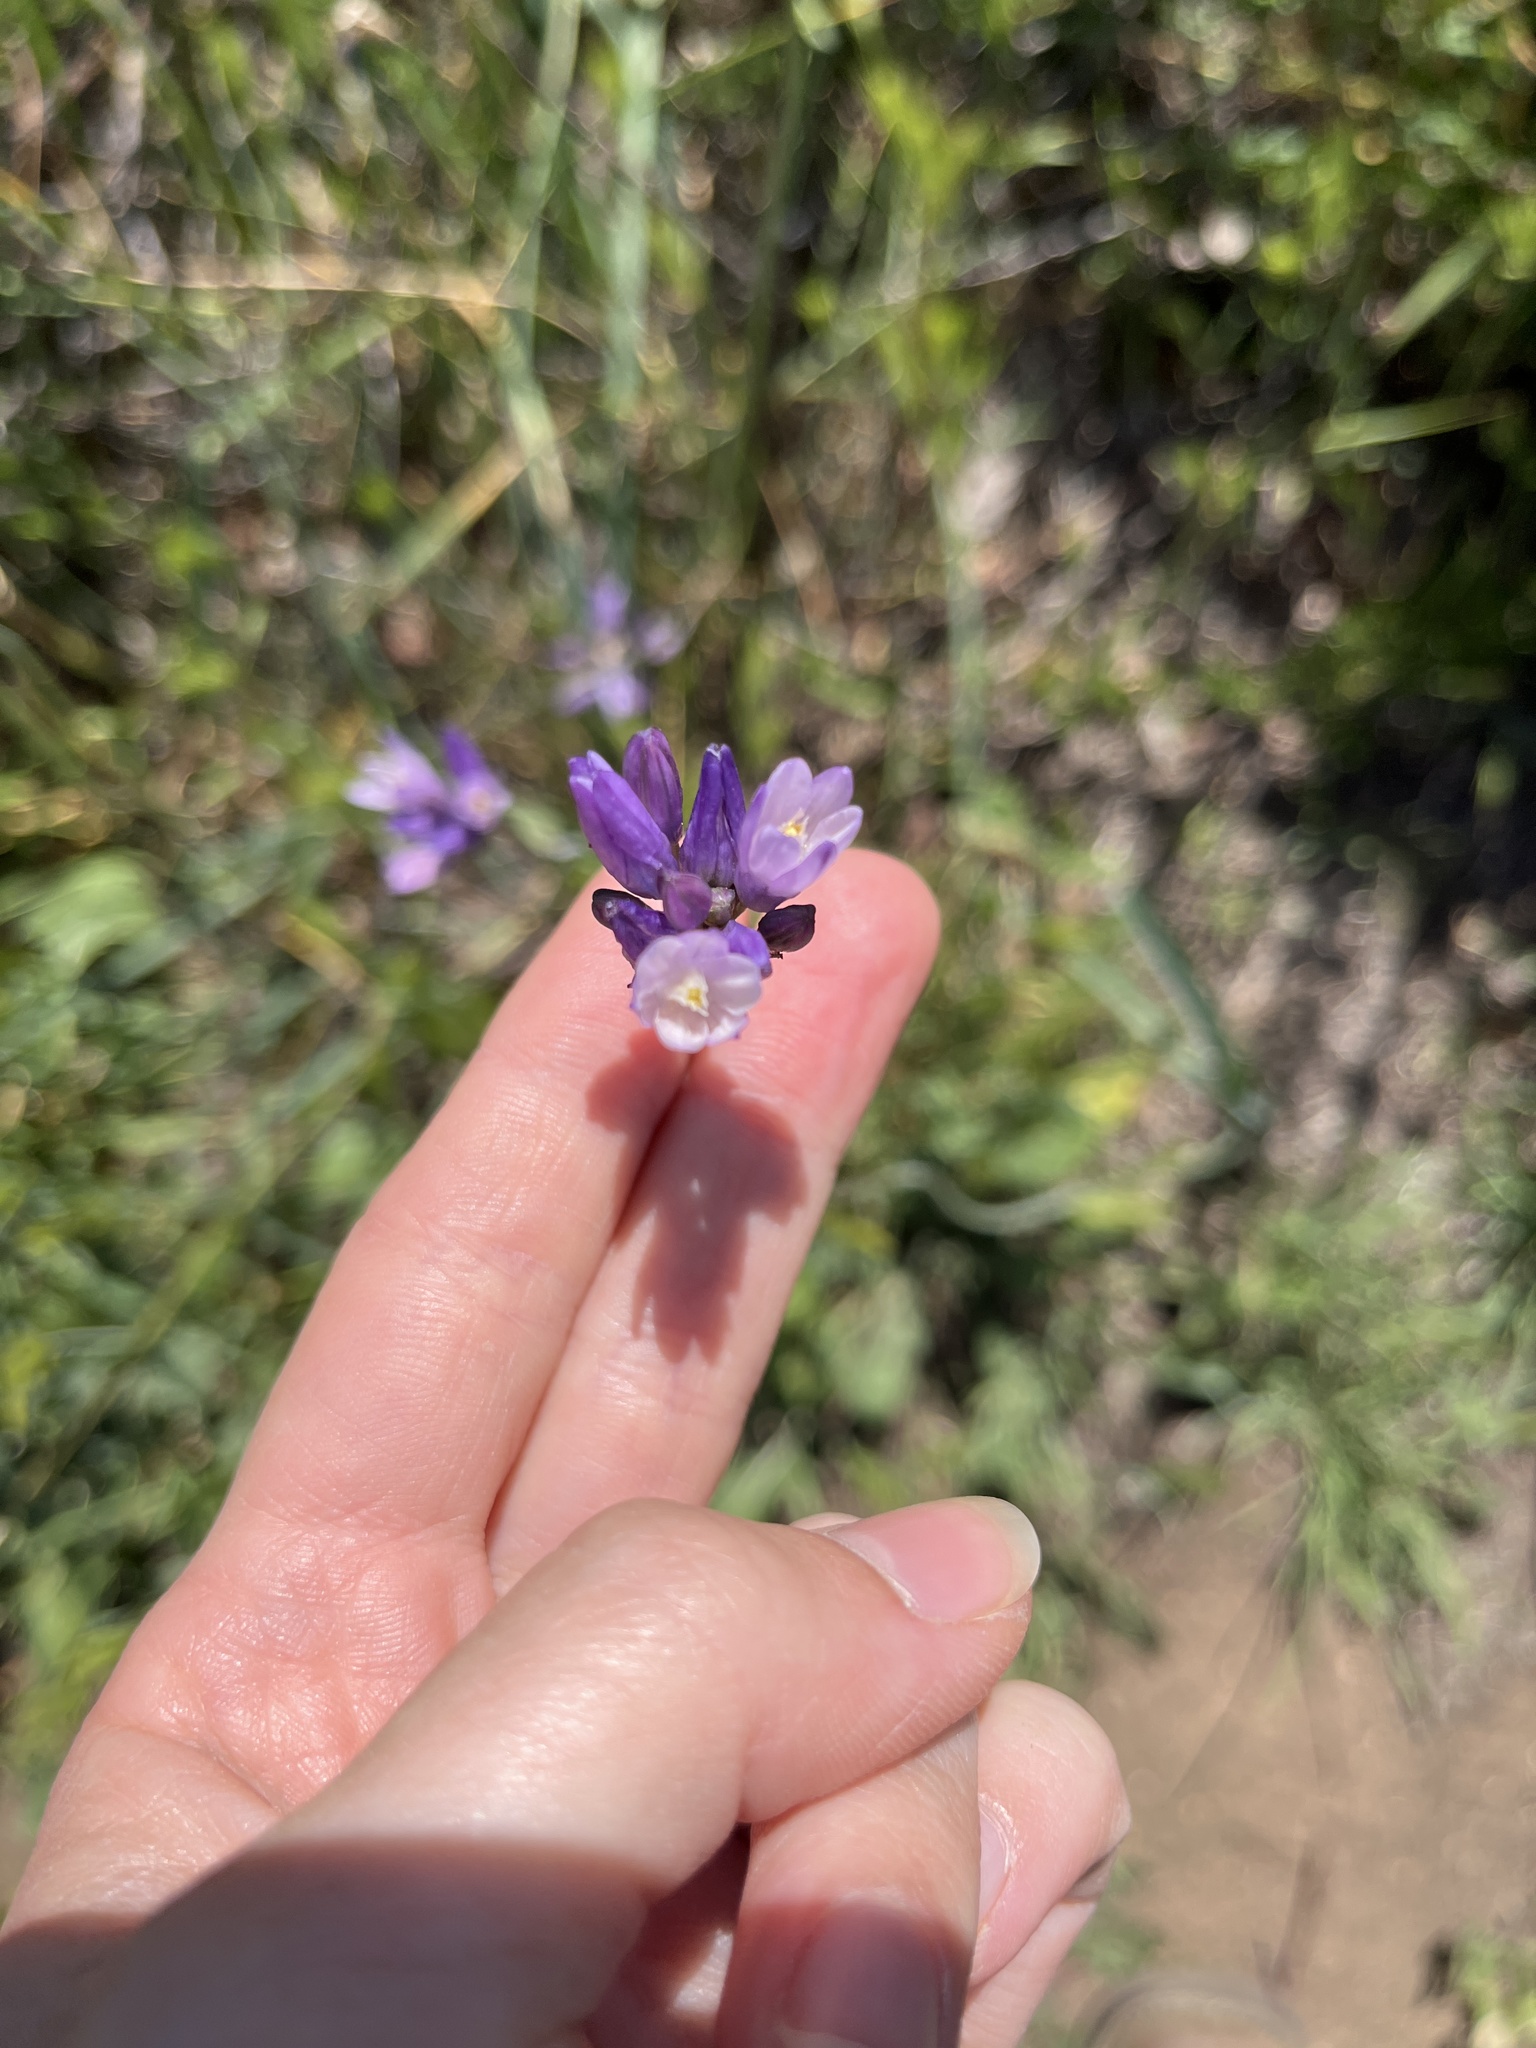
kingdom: Plantae
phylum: Tracheophyta
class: Liliopsida
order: Asparagales
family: Asparagaceae
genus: Dipterostemon
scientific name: Dipterostemon capitatus
